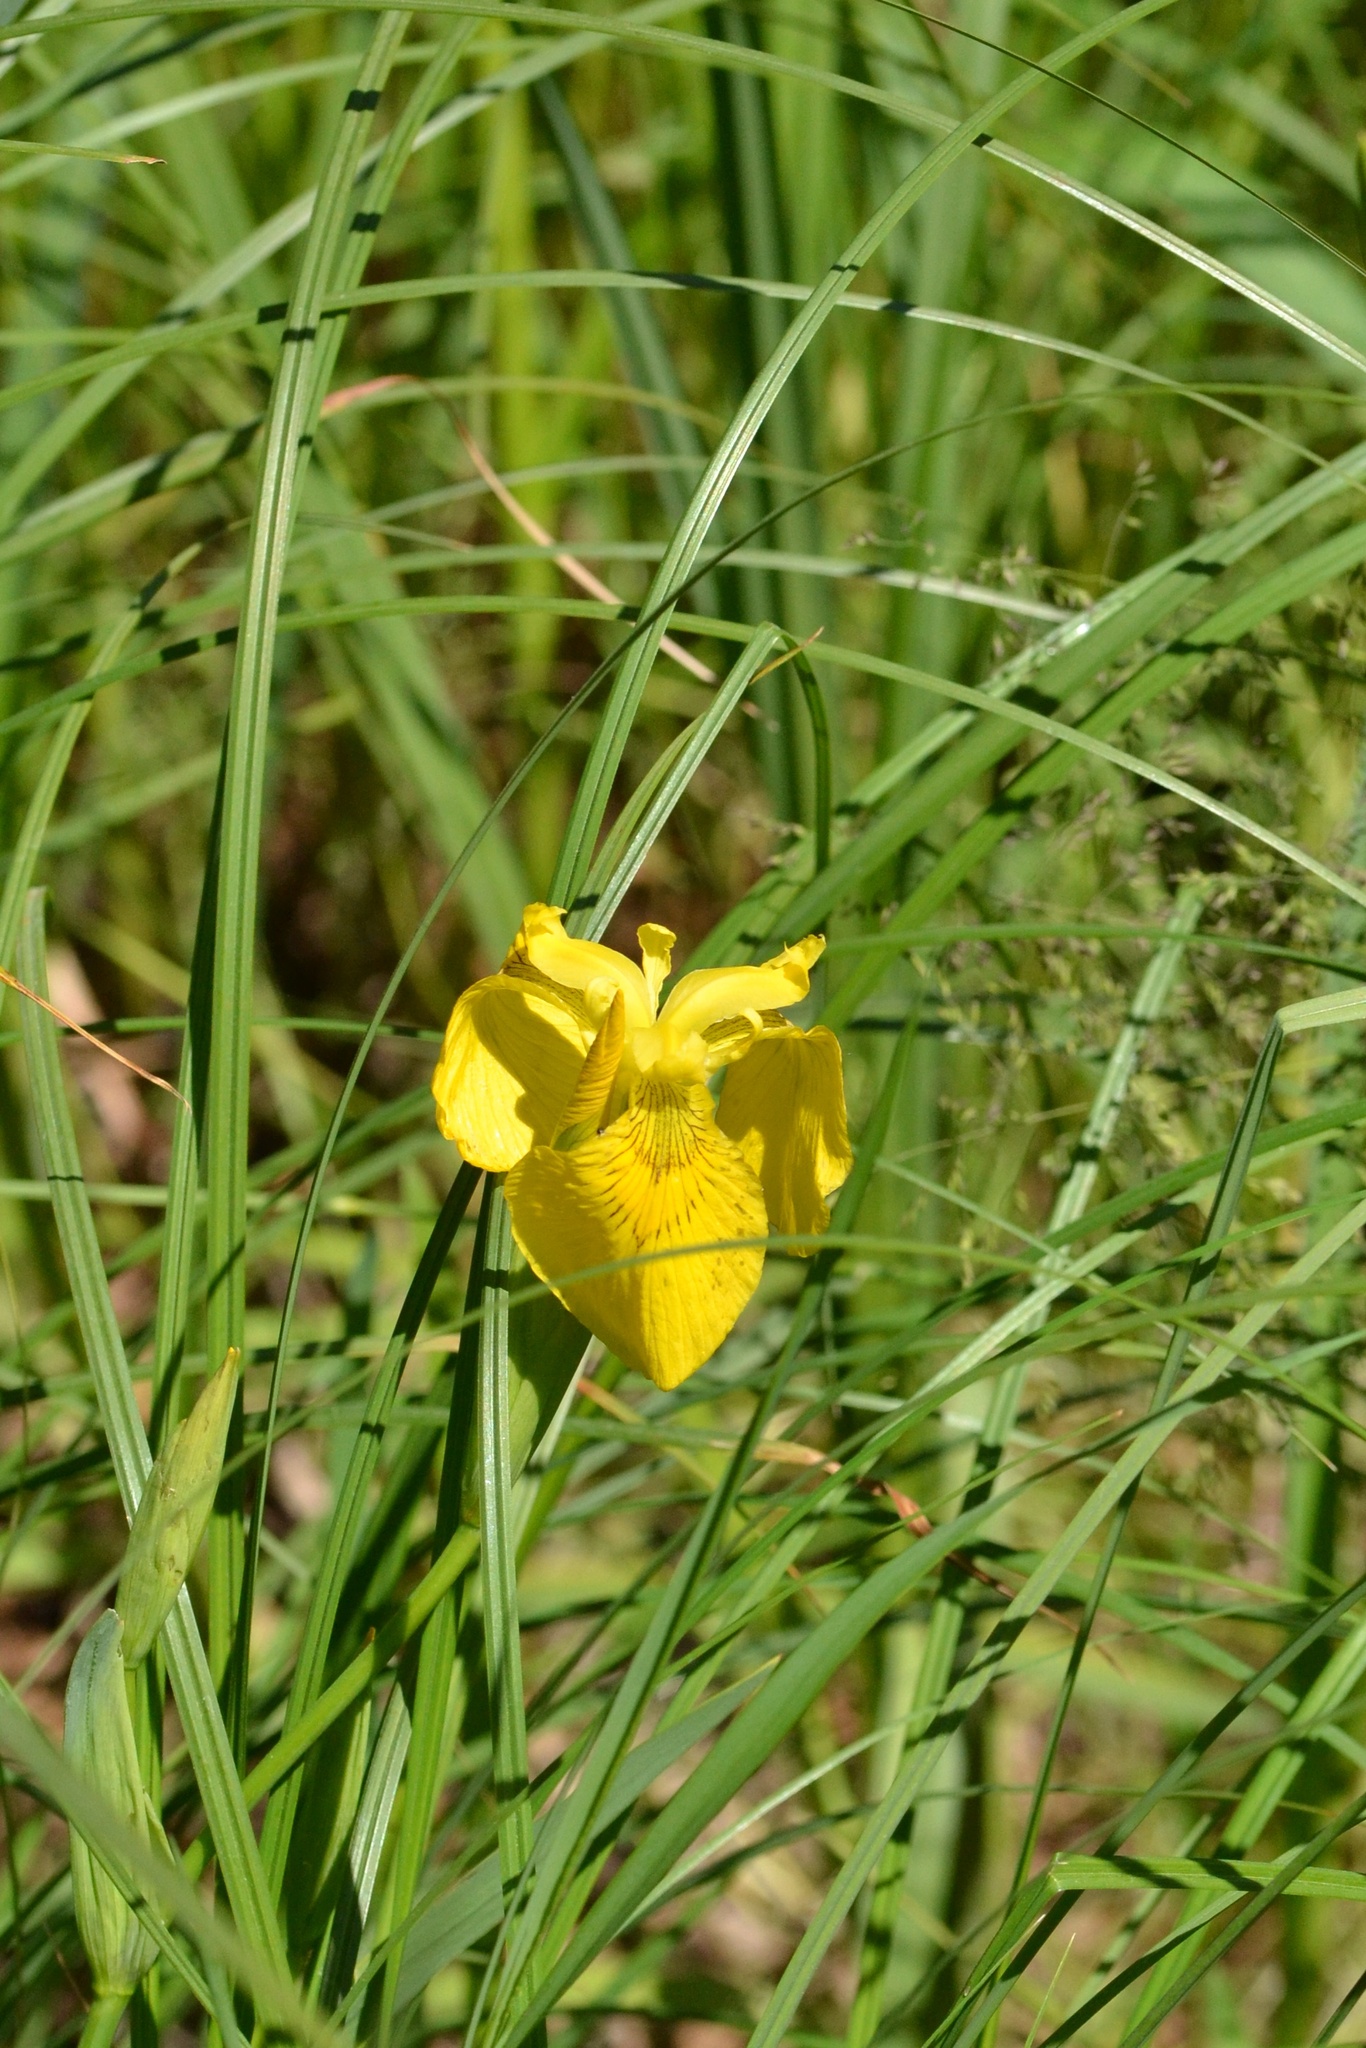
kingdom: Plantae
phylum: Tracheophyta
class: Liliopsida
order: Asparagales
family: Iridaceae
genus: Iris
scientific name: Iris pseudacorus
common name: Yellow flag
